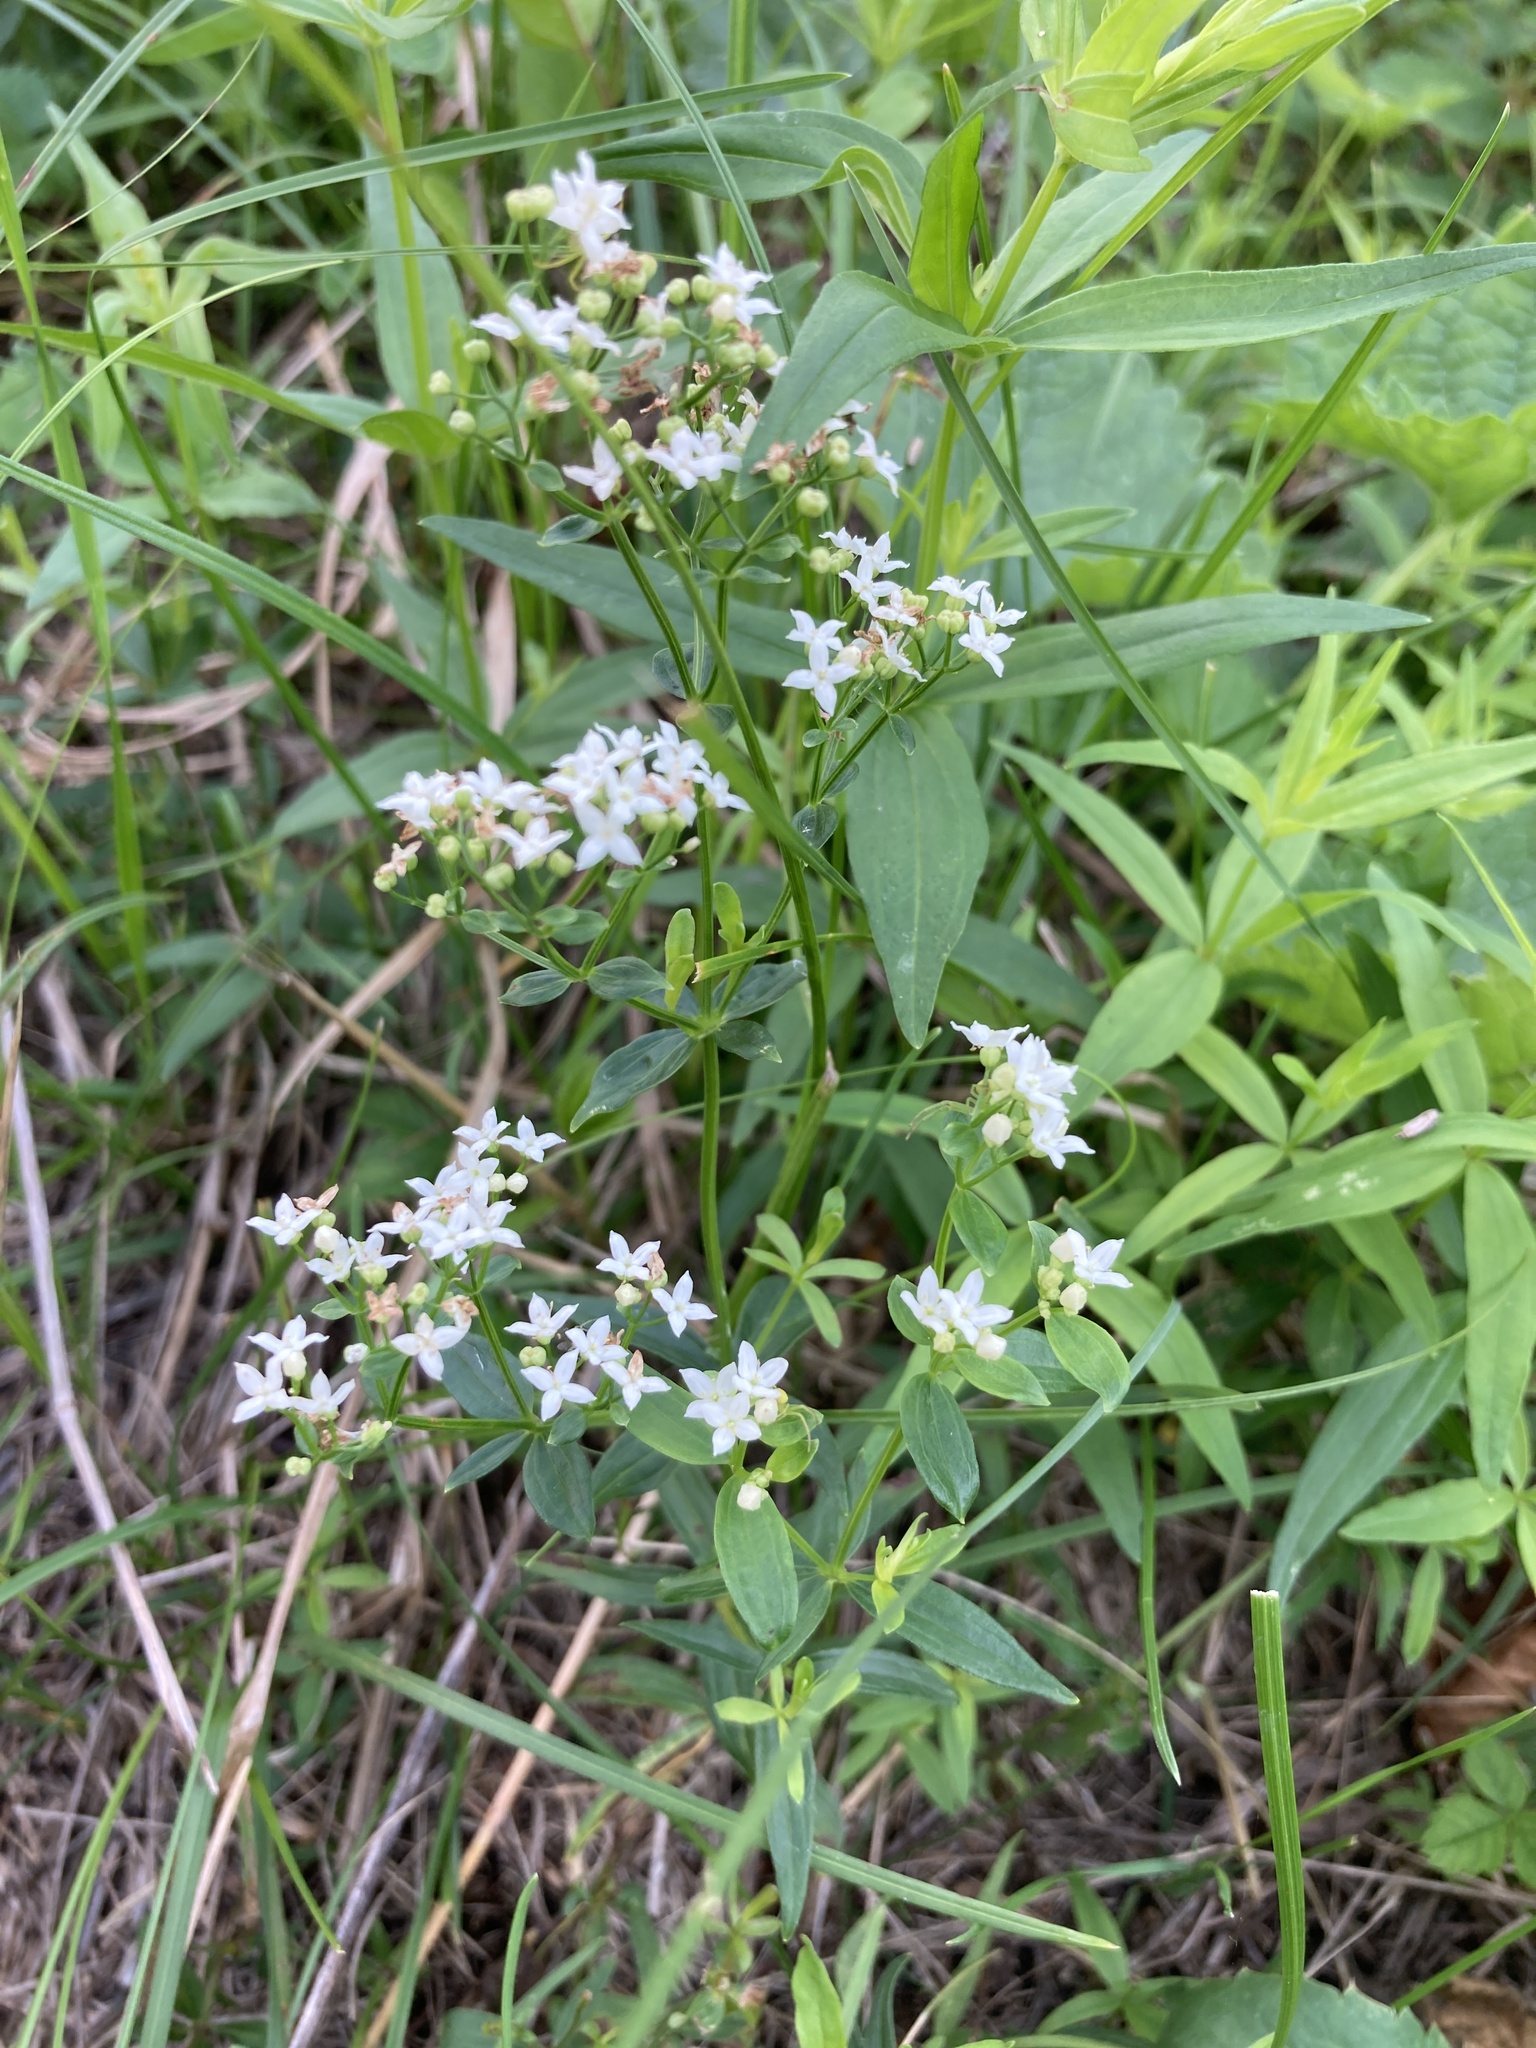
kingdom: Plantae
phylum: Tracheophyta
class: Magnoliopsida
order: Gentianales
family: Rubiaceae
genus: Galium
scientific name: Galium rubioides
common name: European bedstraw
